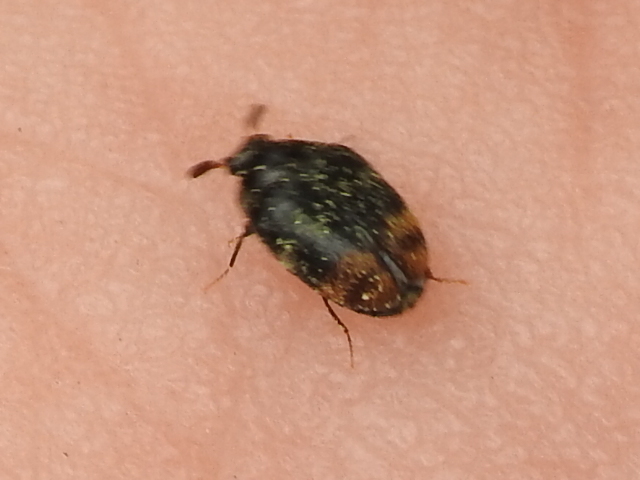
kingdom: Animalia
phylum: Arthropoda
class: Insecta
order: Coleoptera
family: Dermestidae
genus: Cryptorhopalum
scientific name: Cryptorhopalum haemorrhoidale
